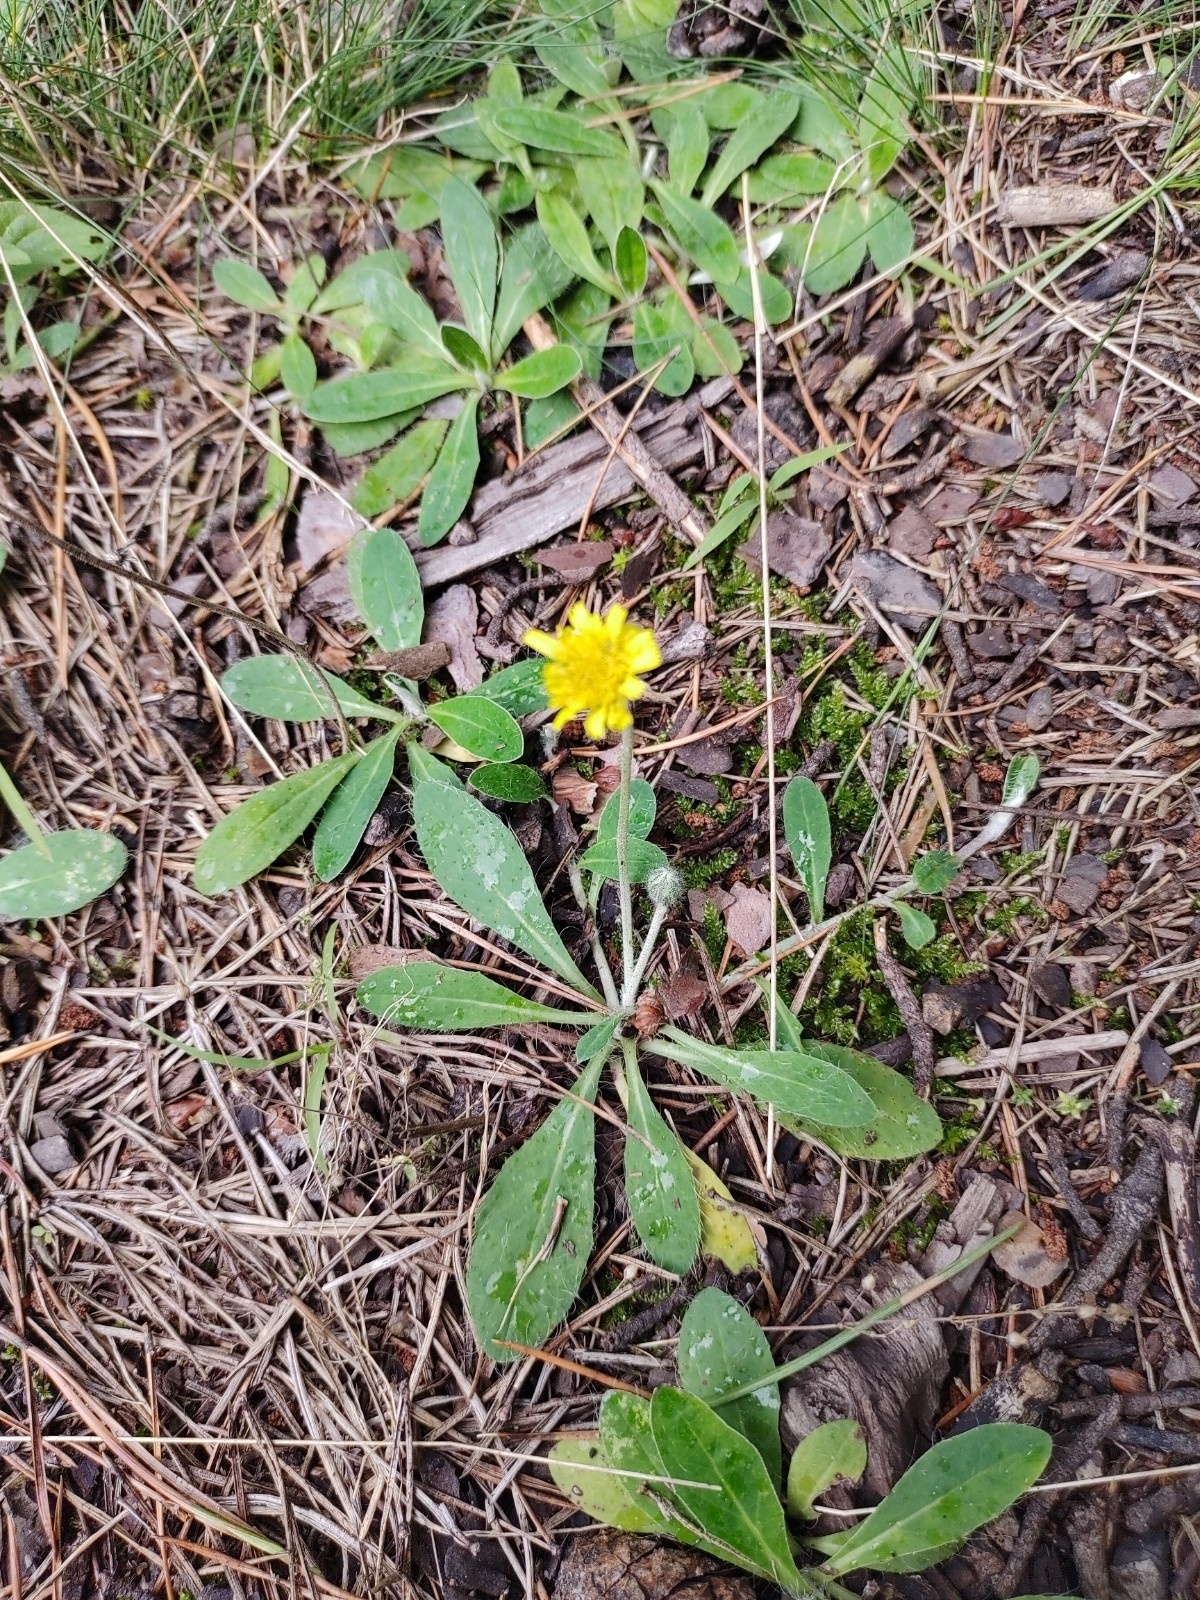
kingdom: Plantae
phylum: Tracheophyta
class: Magnoliopsida
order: Asterales
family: Asteraceae
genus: Pilosella
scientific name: Pilosella officinarum
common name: Mouse-ear hawkweed
